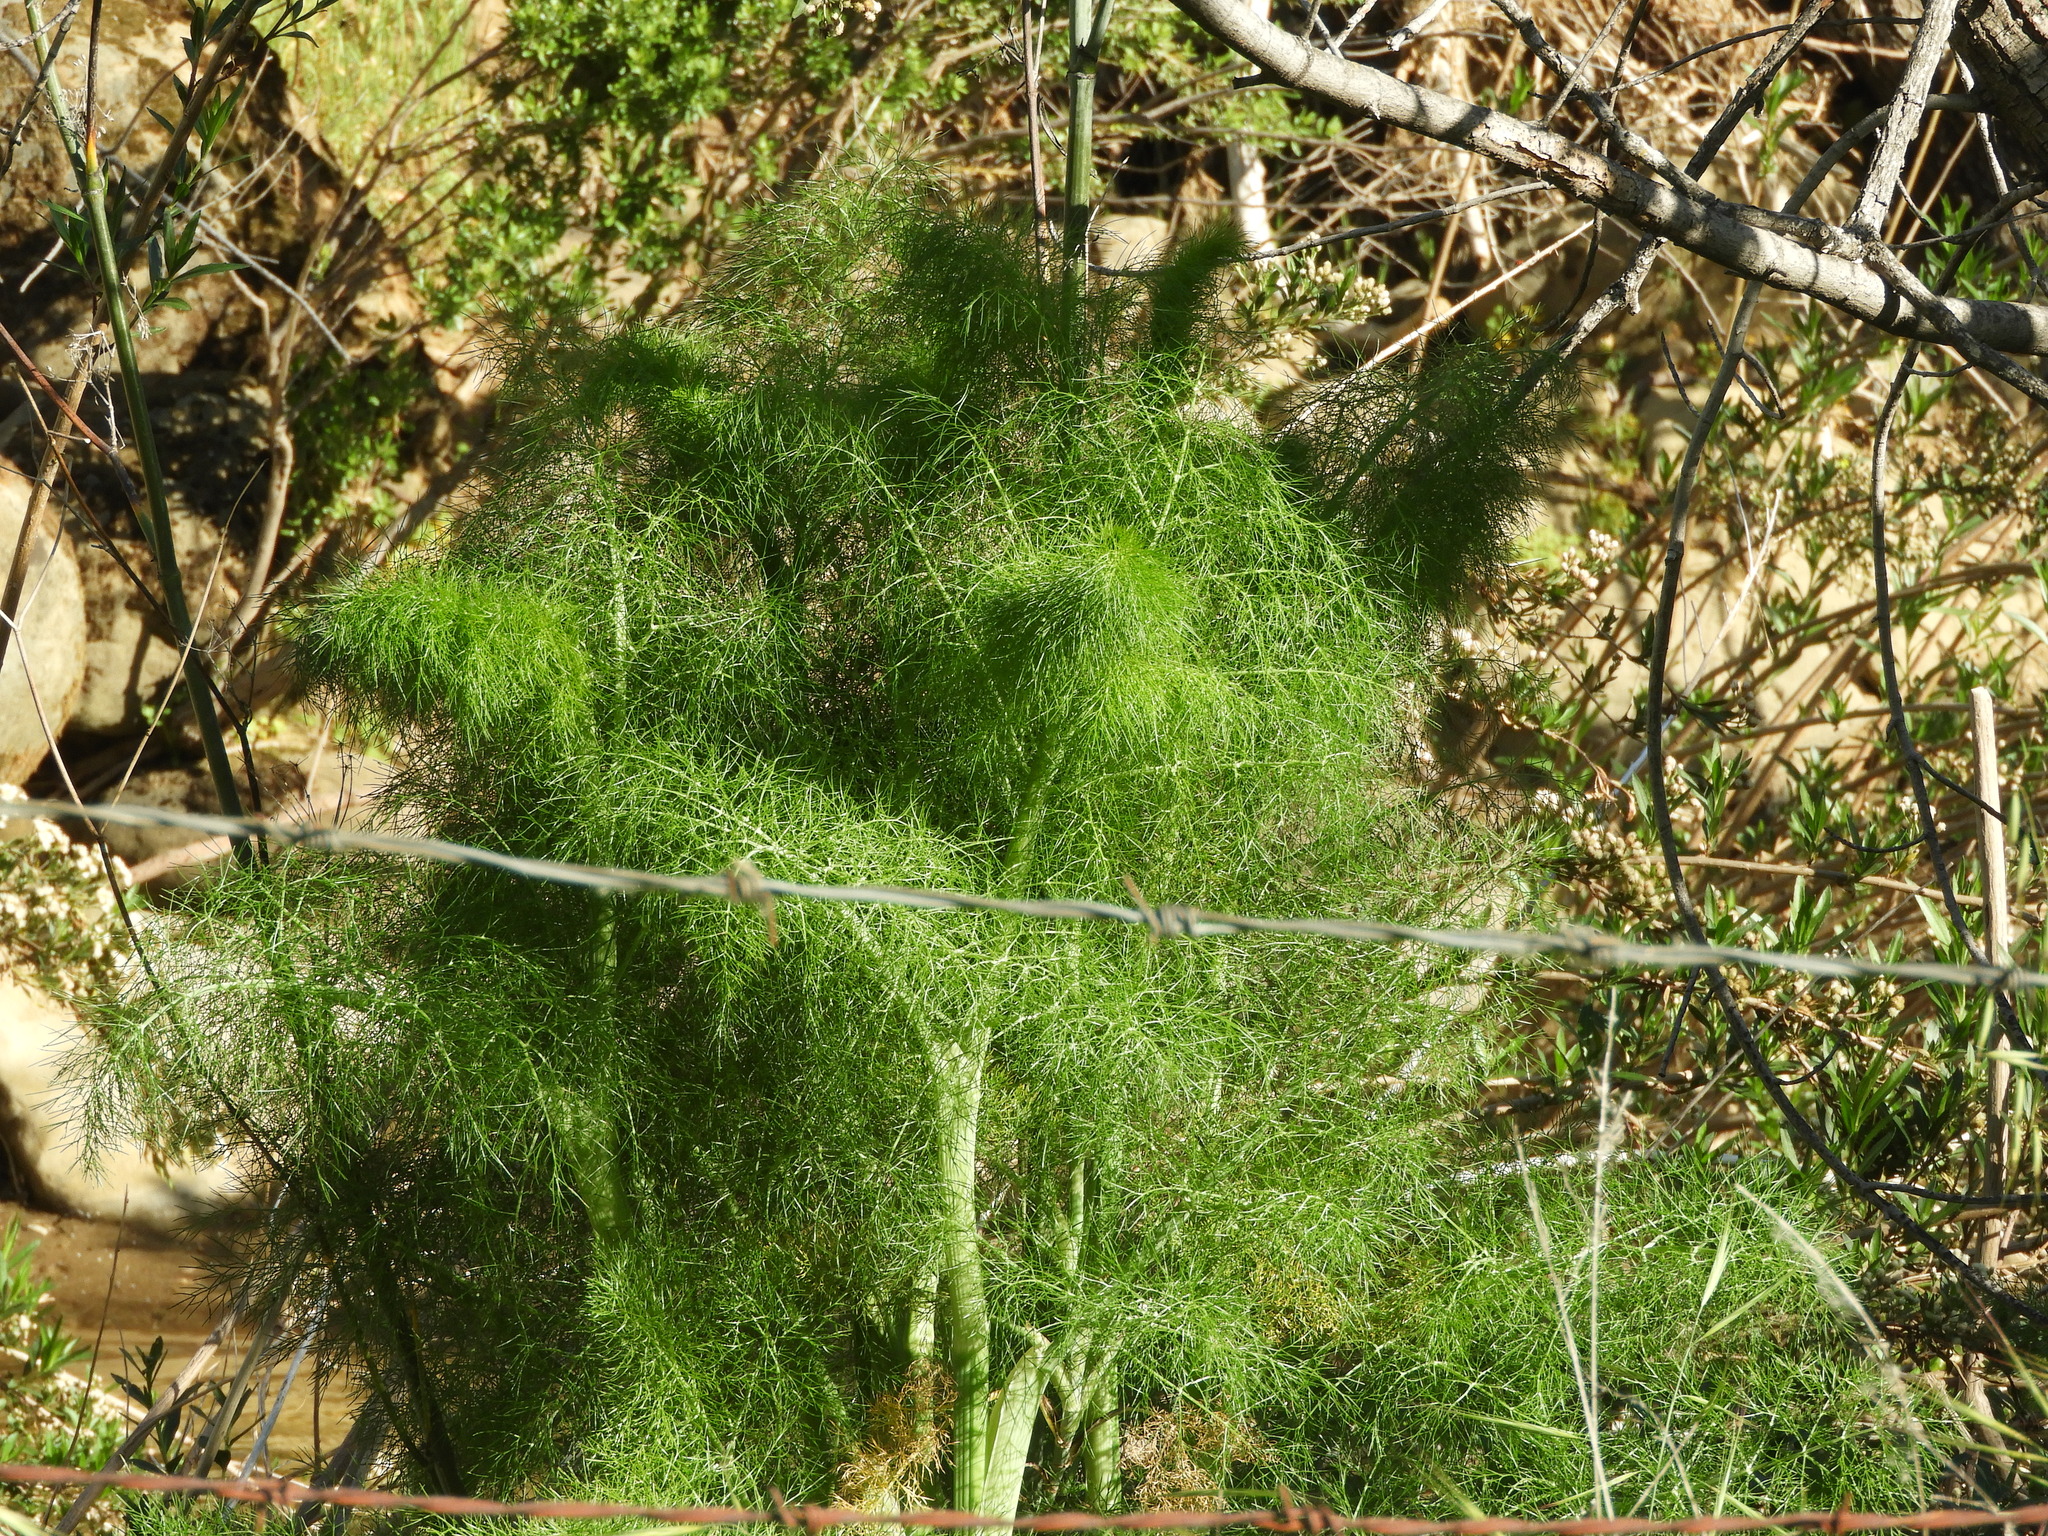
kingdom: Plantae
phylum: Tracheophyta
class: Magnoliopsida
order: Apiales
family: Apiaceae
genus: Foeniculum
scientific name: Foeniculum vulgare
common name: Fennel
